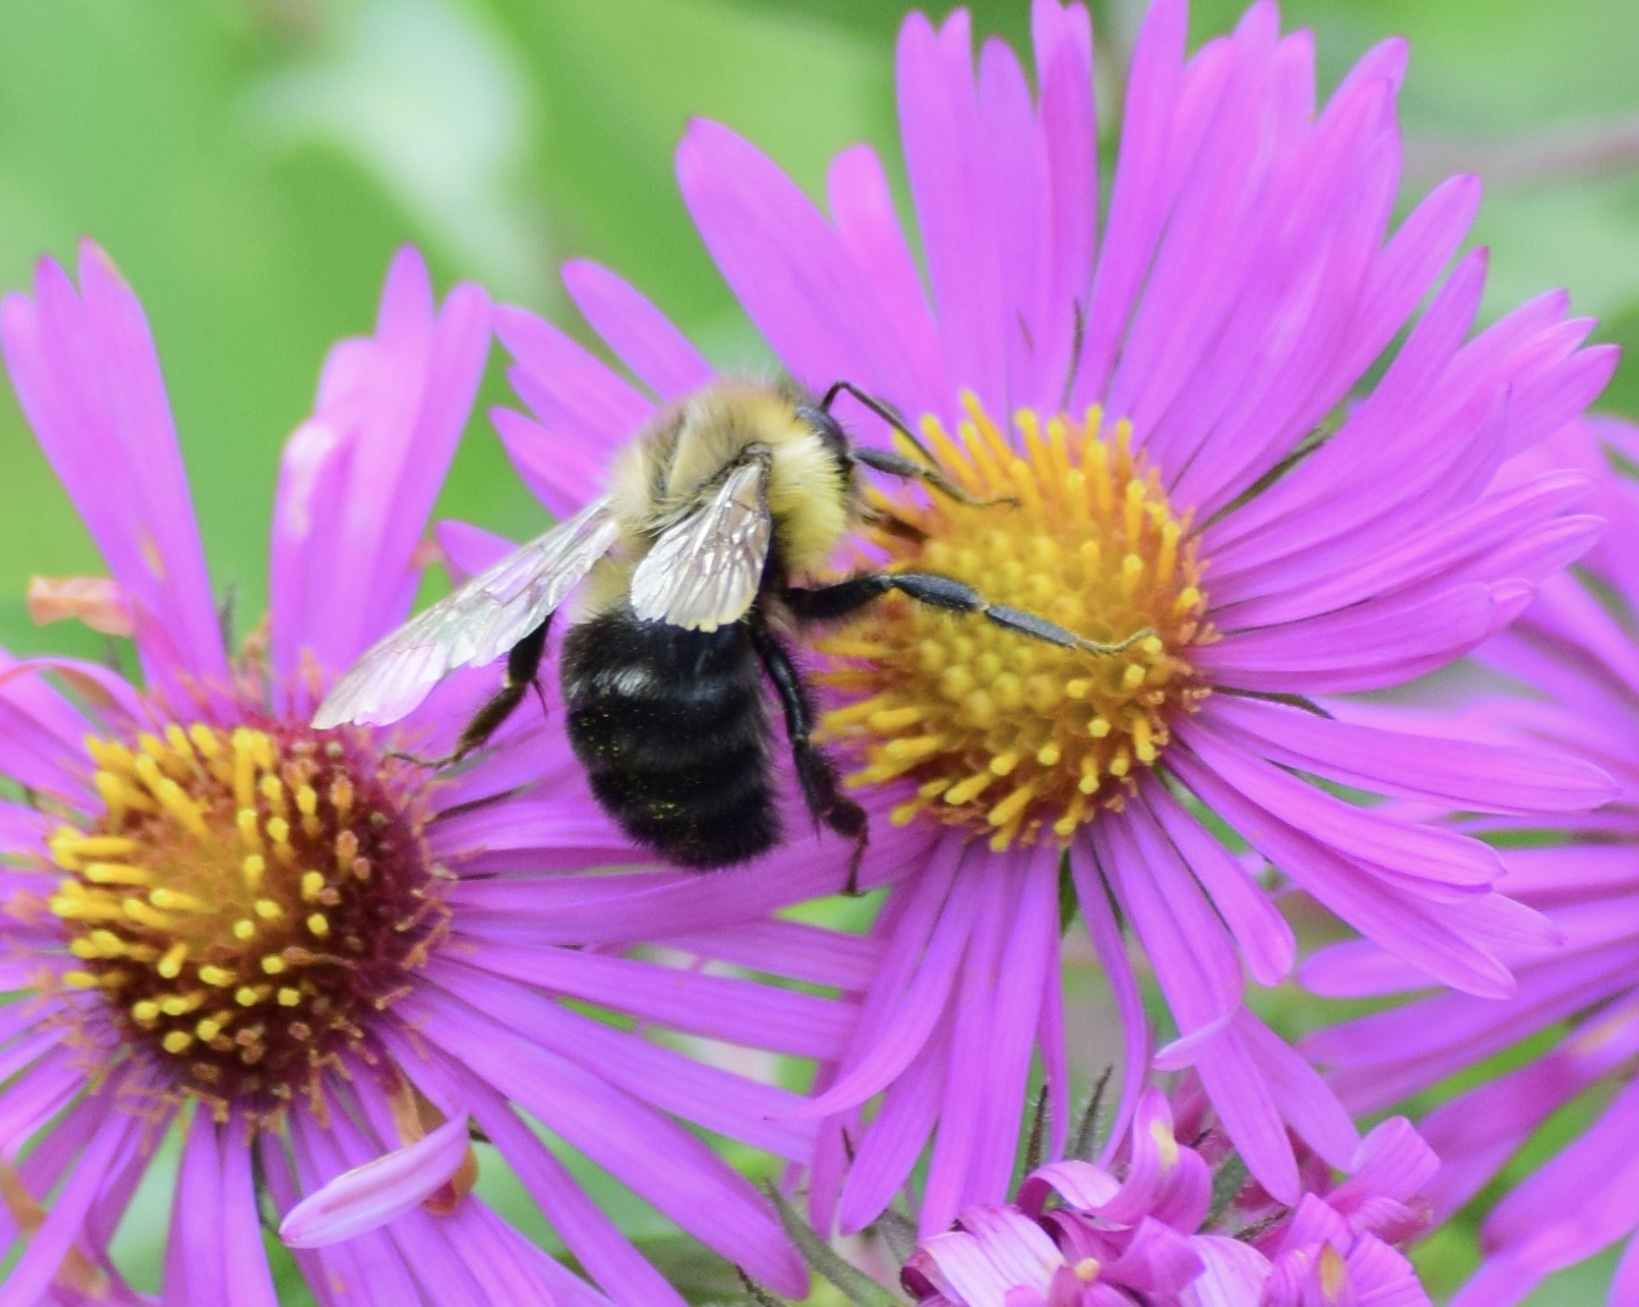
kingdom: Animalia
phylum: Arthropoda
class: Insecta
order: Hymenoptera
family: Apidae
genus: Bombus
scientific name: Bombus impatiens
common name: Common eastern bumble bee
